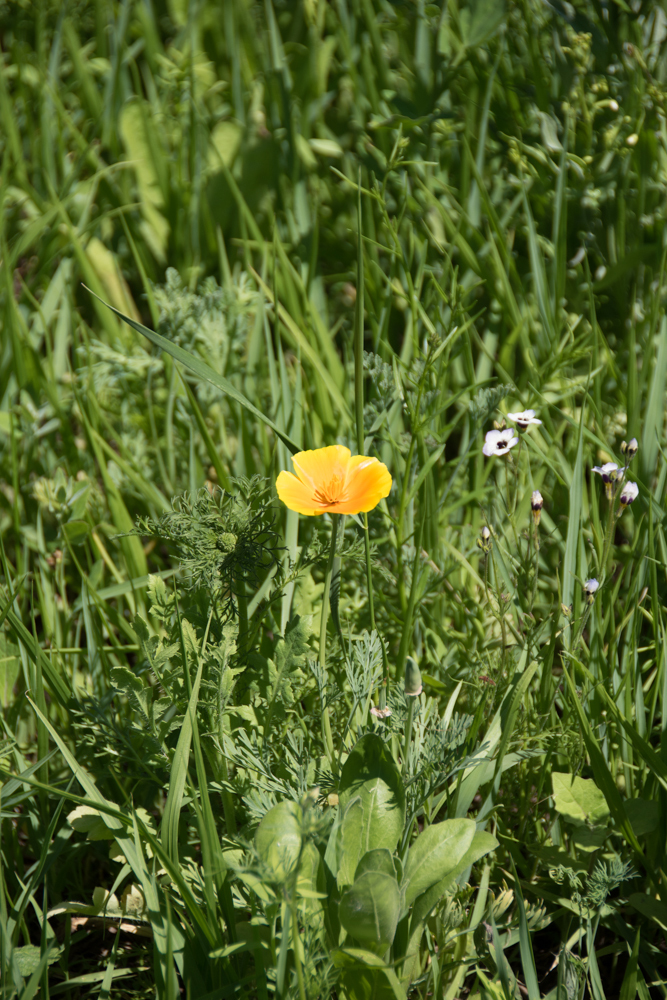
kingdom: Plantae
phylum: Tracheophyta
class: Magnoliopsida
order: Ranunculales
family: Papaveraceae
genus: Eschscholzia
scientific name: Eschscholzia californica
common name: California poppy
